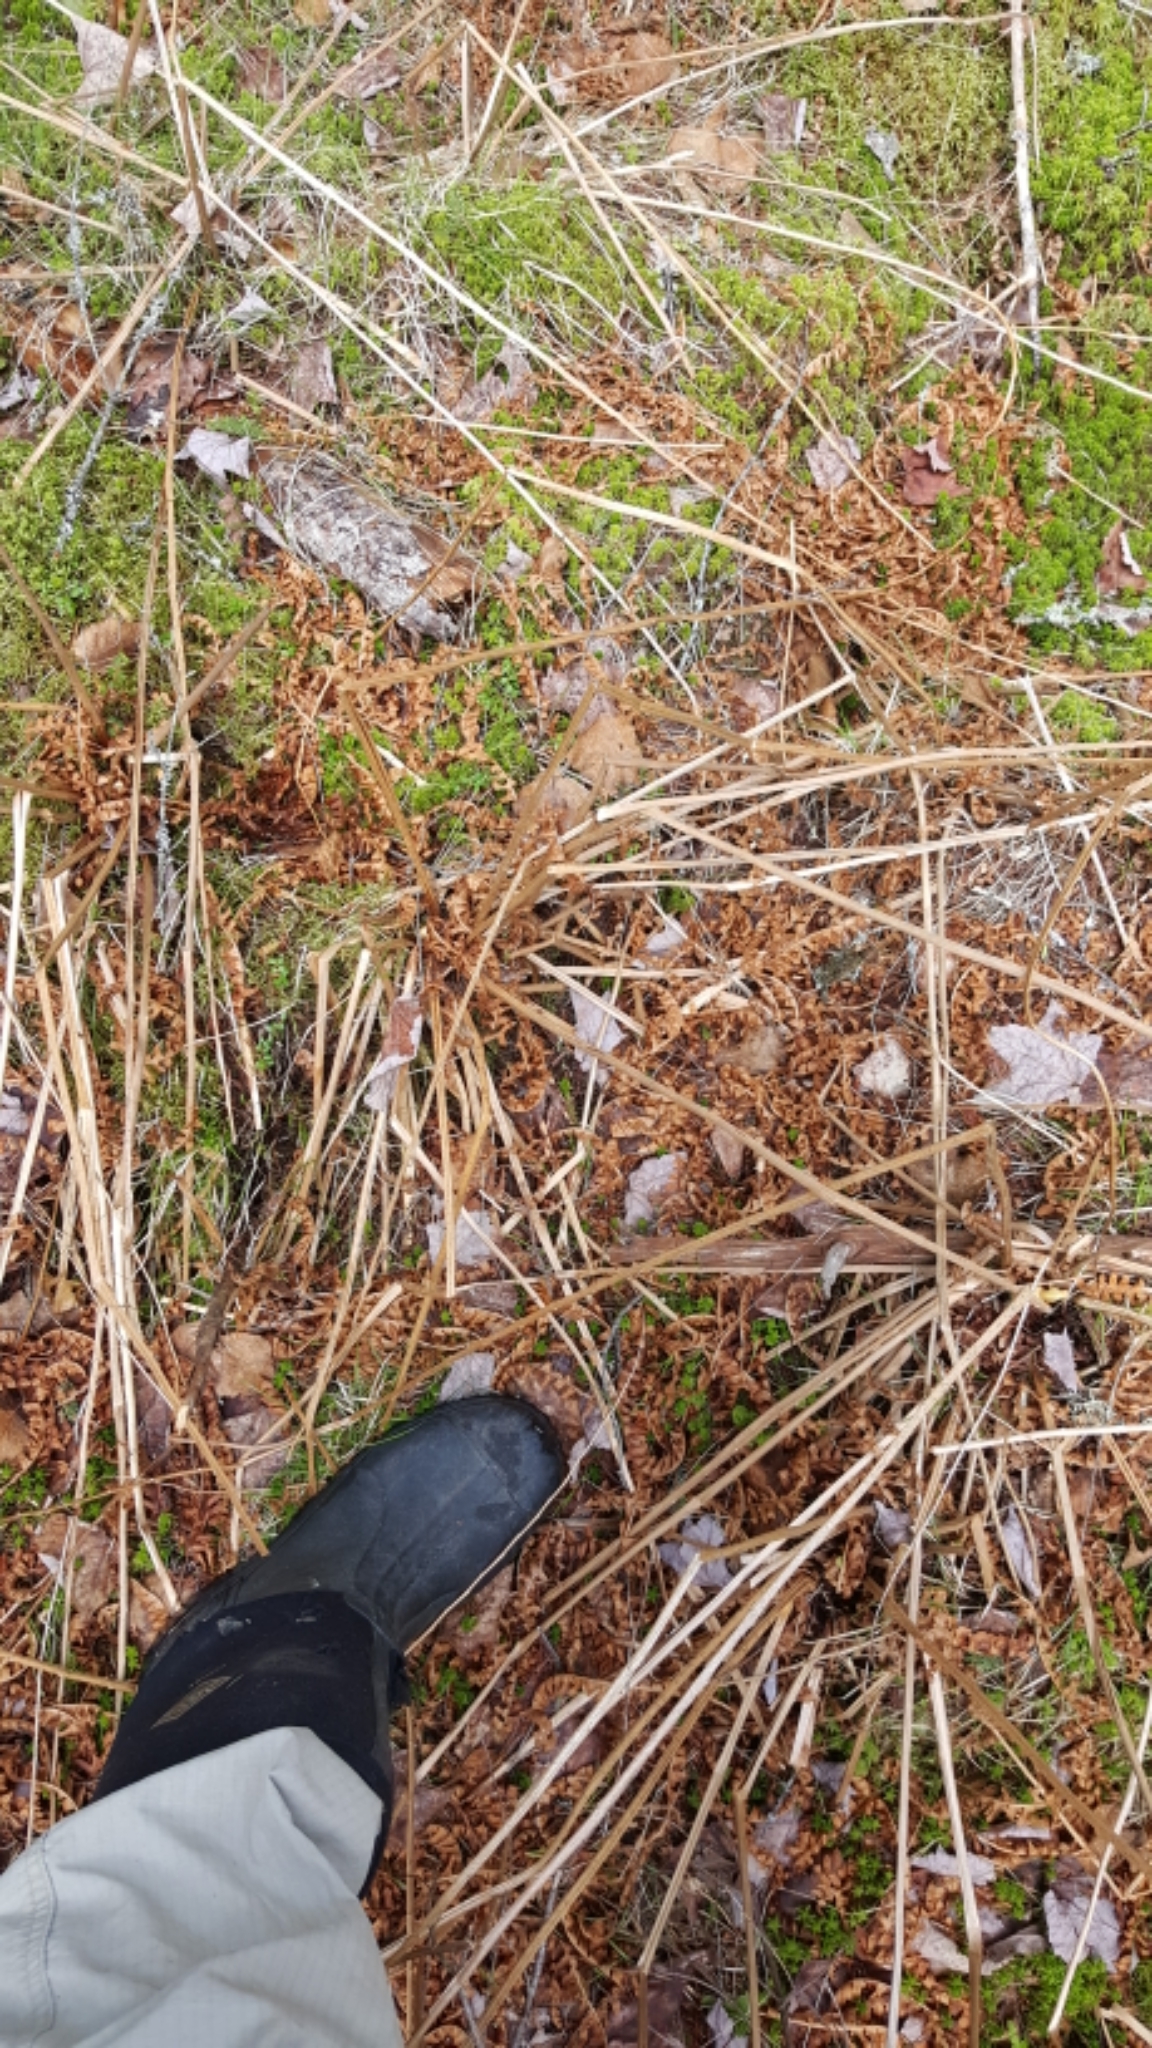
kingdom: Plantae
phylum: Tracheophyta
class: Polypodiopsida
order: Osmundales
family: Osmundaceae
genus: Osmundastrum
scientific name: Osmundastrum cinnamomeum
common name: Cinnamon fern
